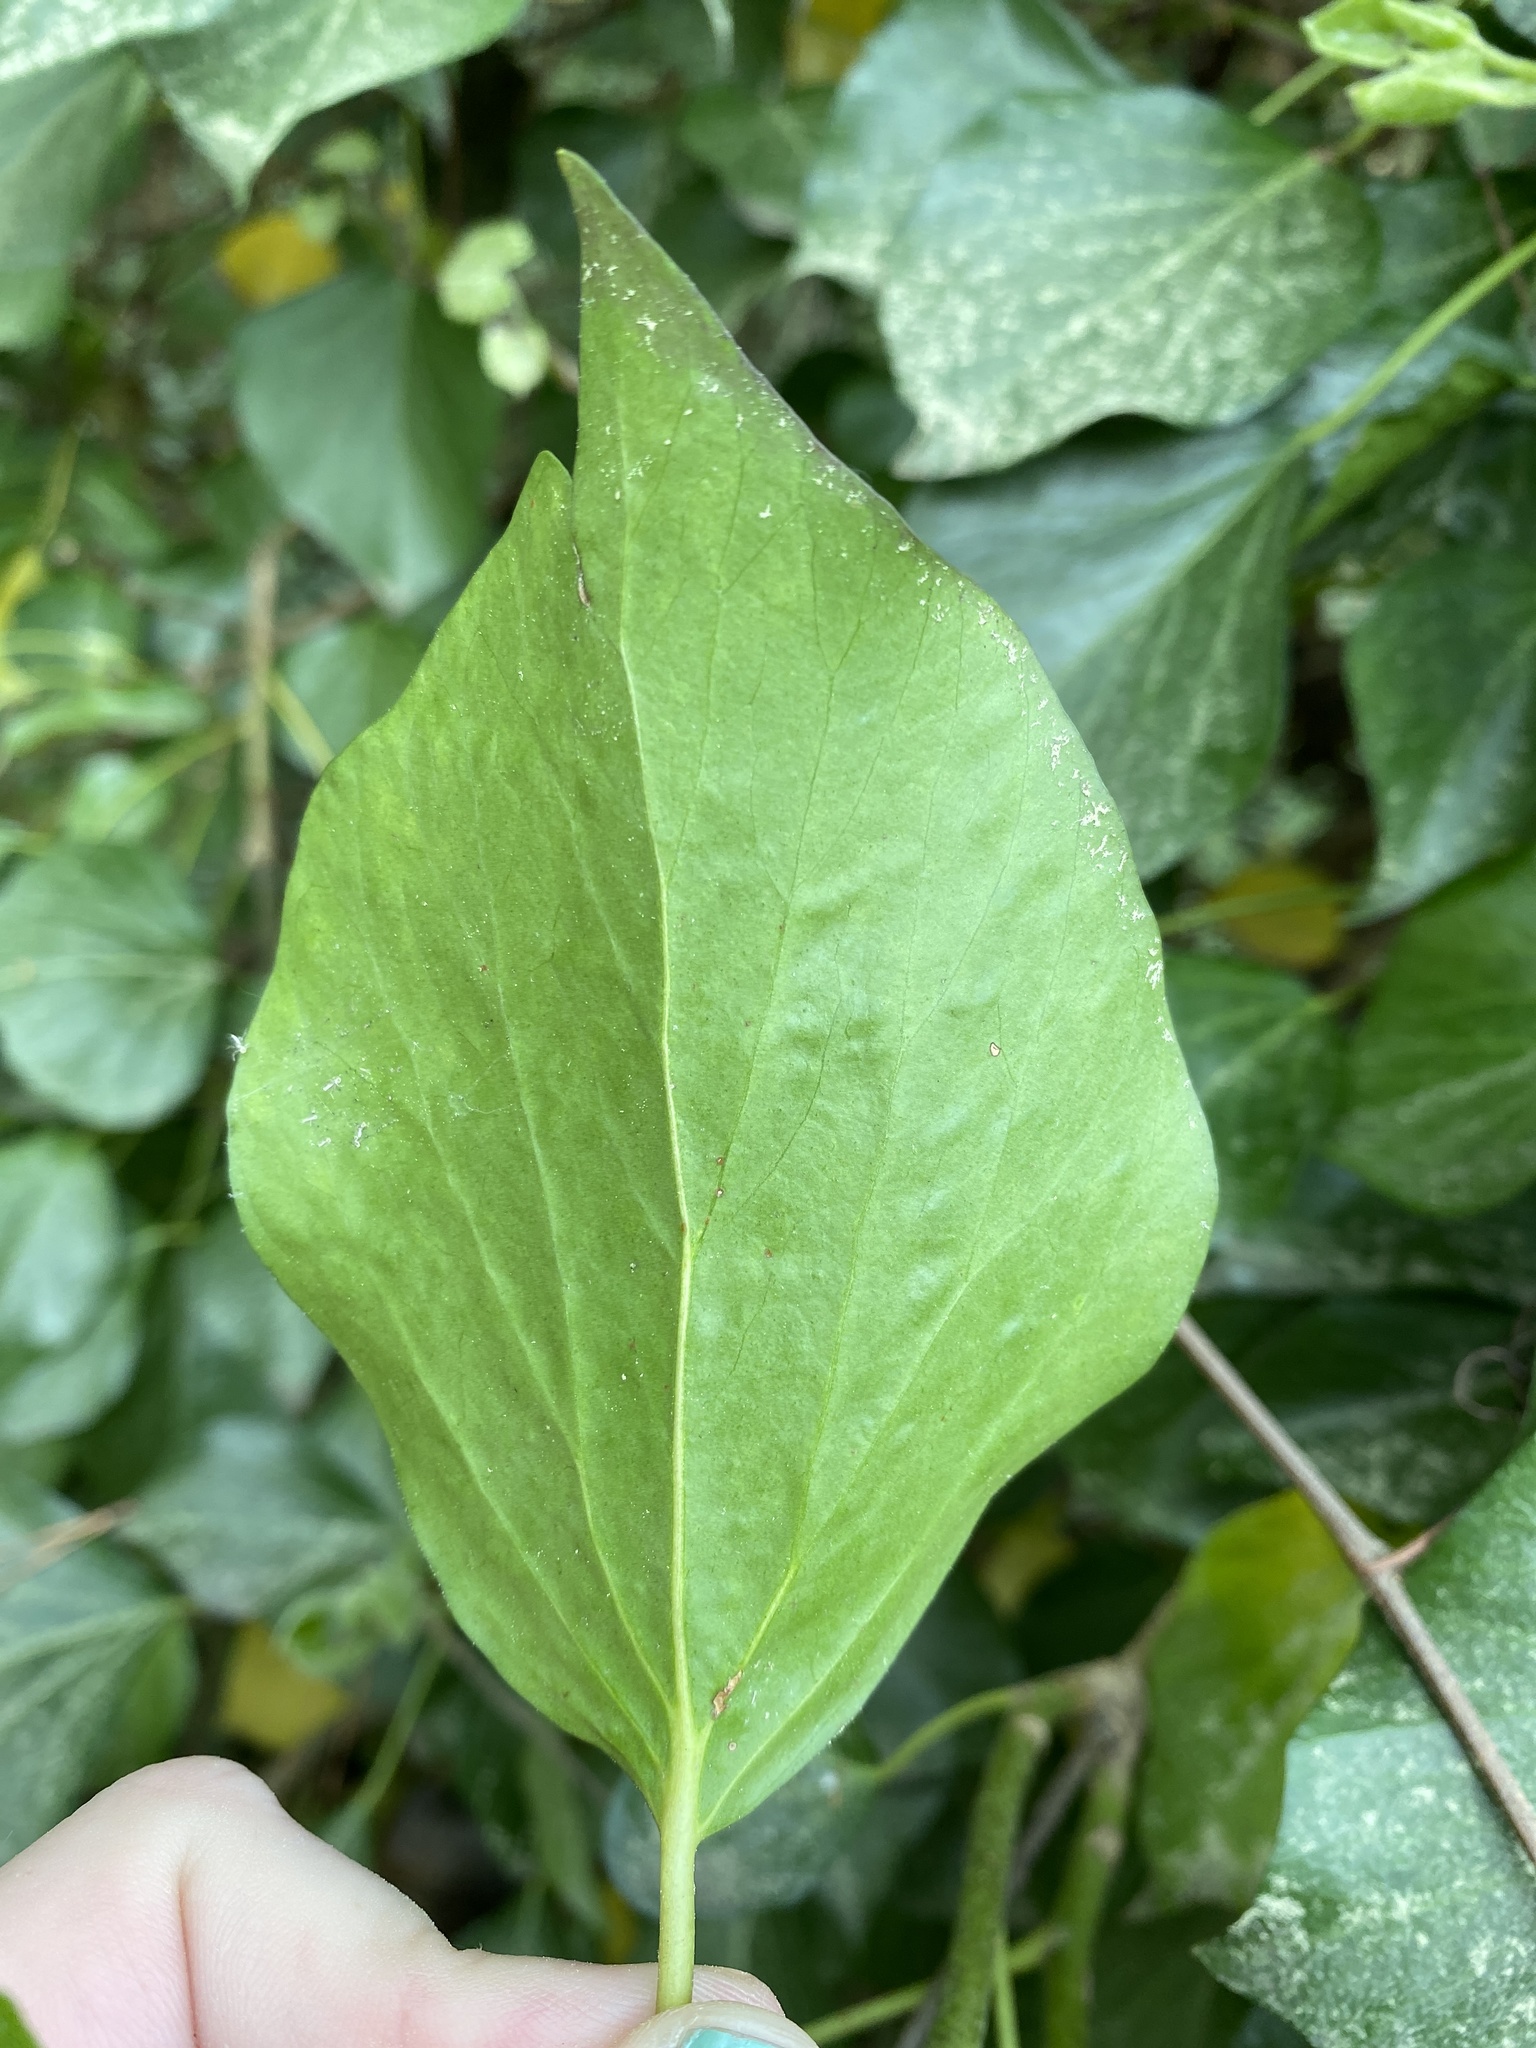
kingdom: Plantae
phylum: Tracheophyta
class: Magnoliopsida
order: Apiales
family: Araliaceae
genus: Hedera
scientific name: Hedera helix
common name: Ivy
